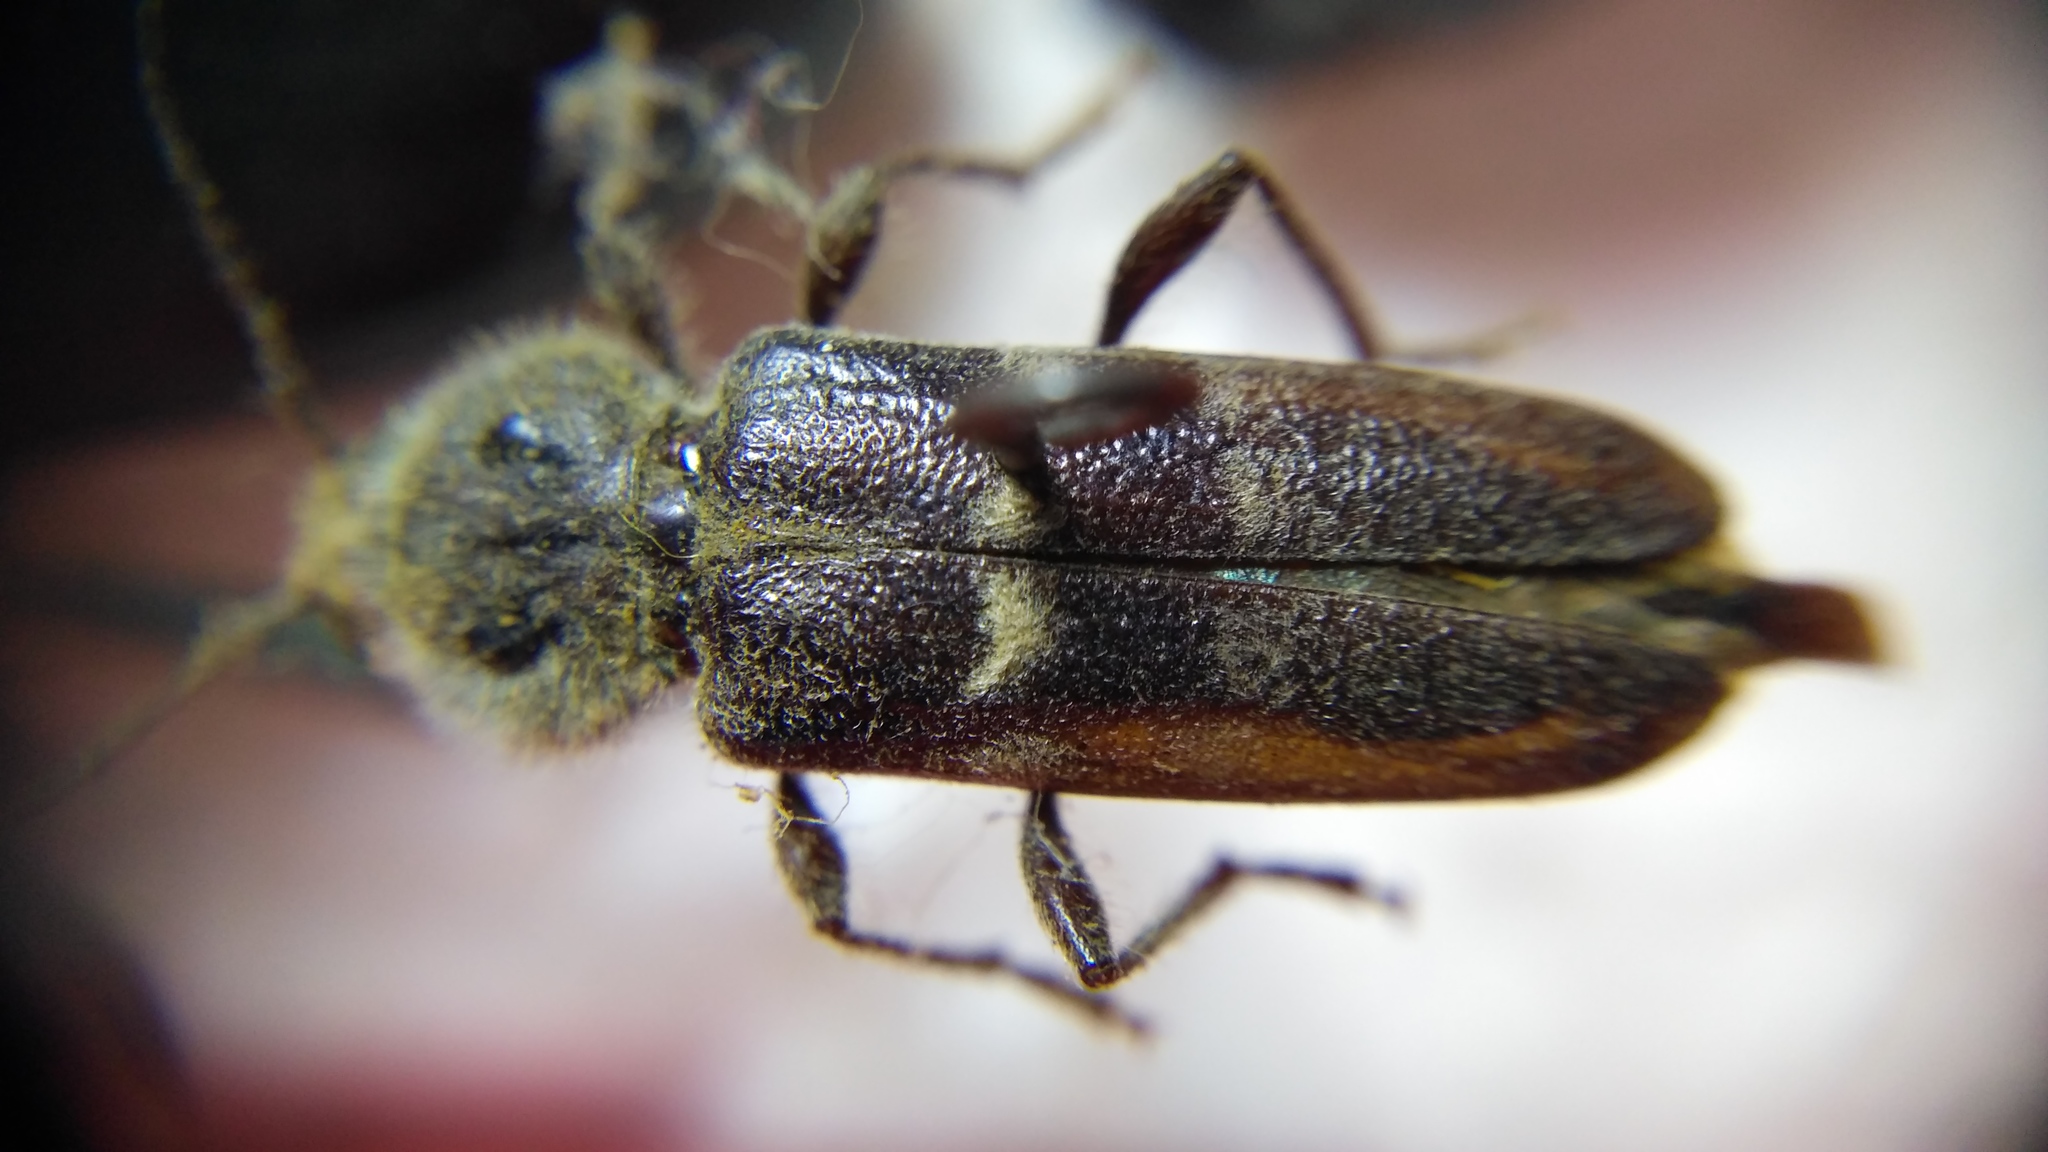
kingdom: Animalia
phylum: Arthropoda
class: Insecta
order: Coleoptera
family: Cerambycidae
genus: Hylotrupes
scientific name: Hylotrupes bajulus
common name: Old house borer
